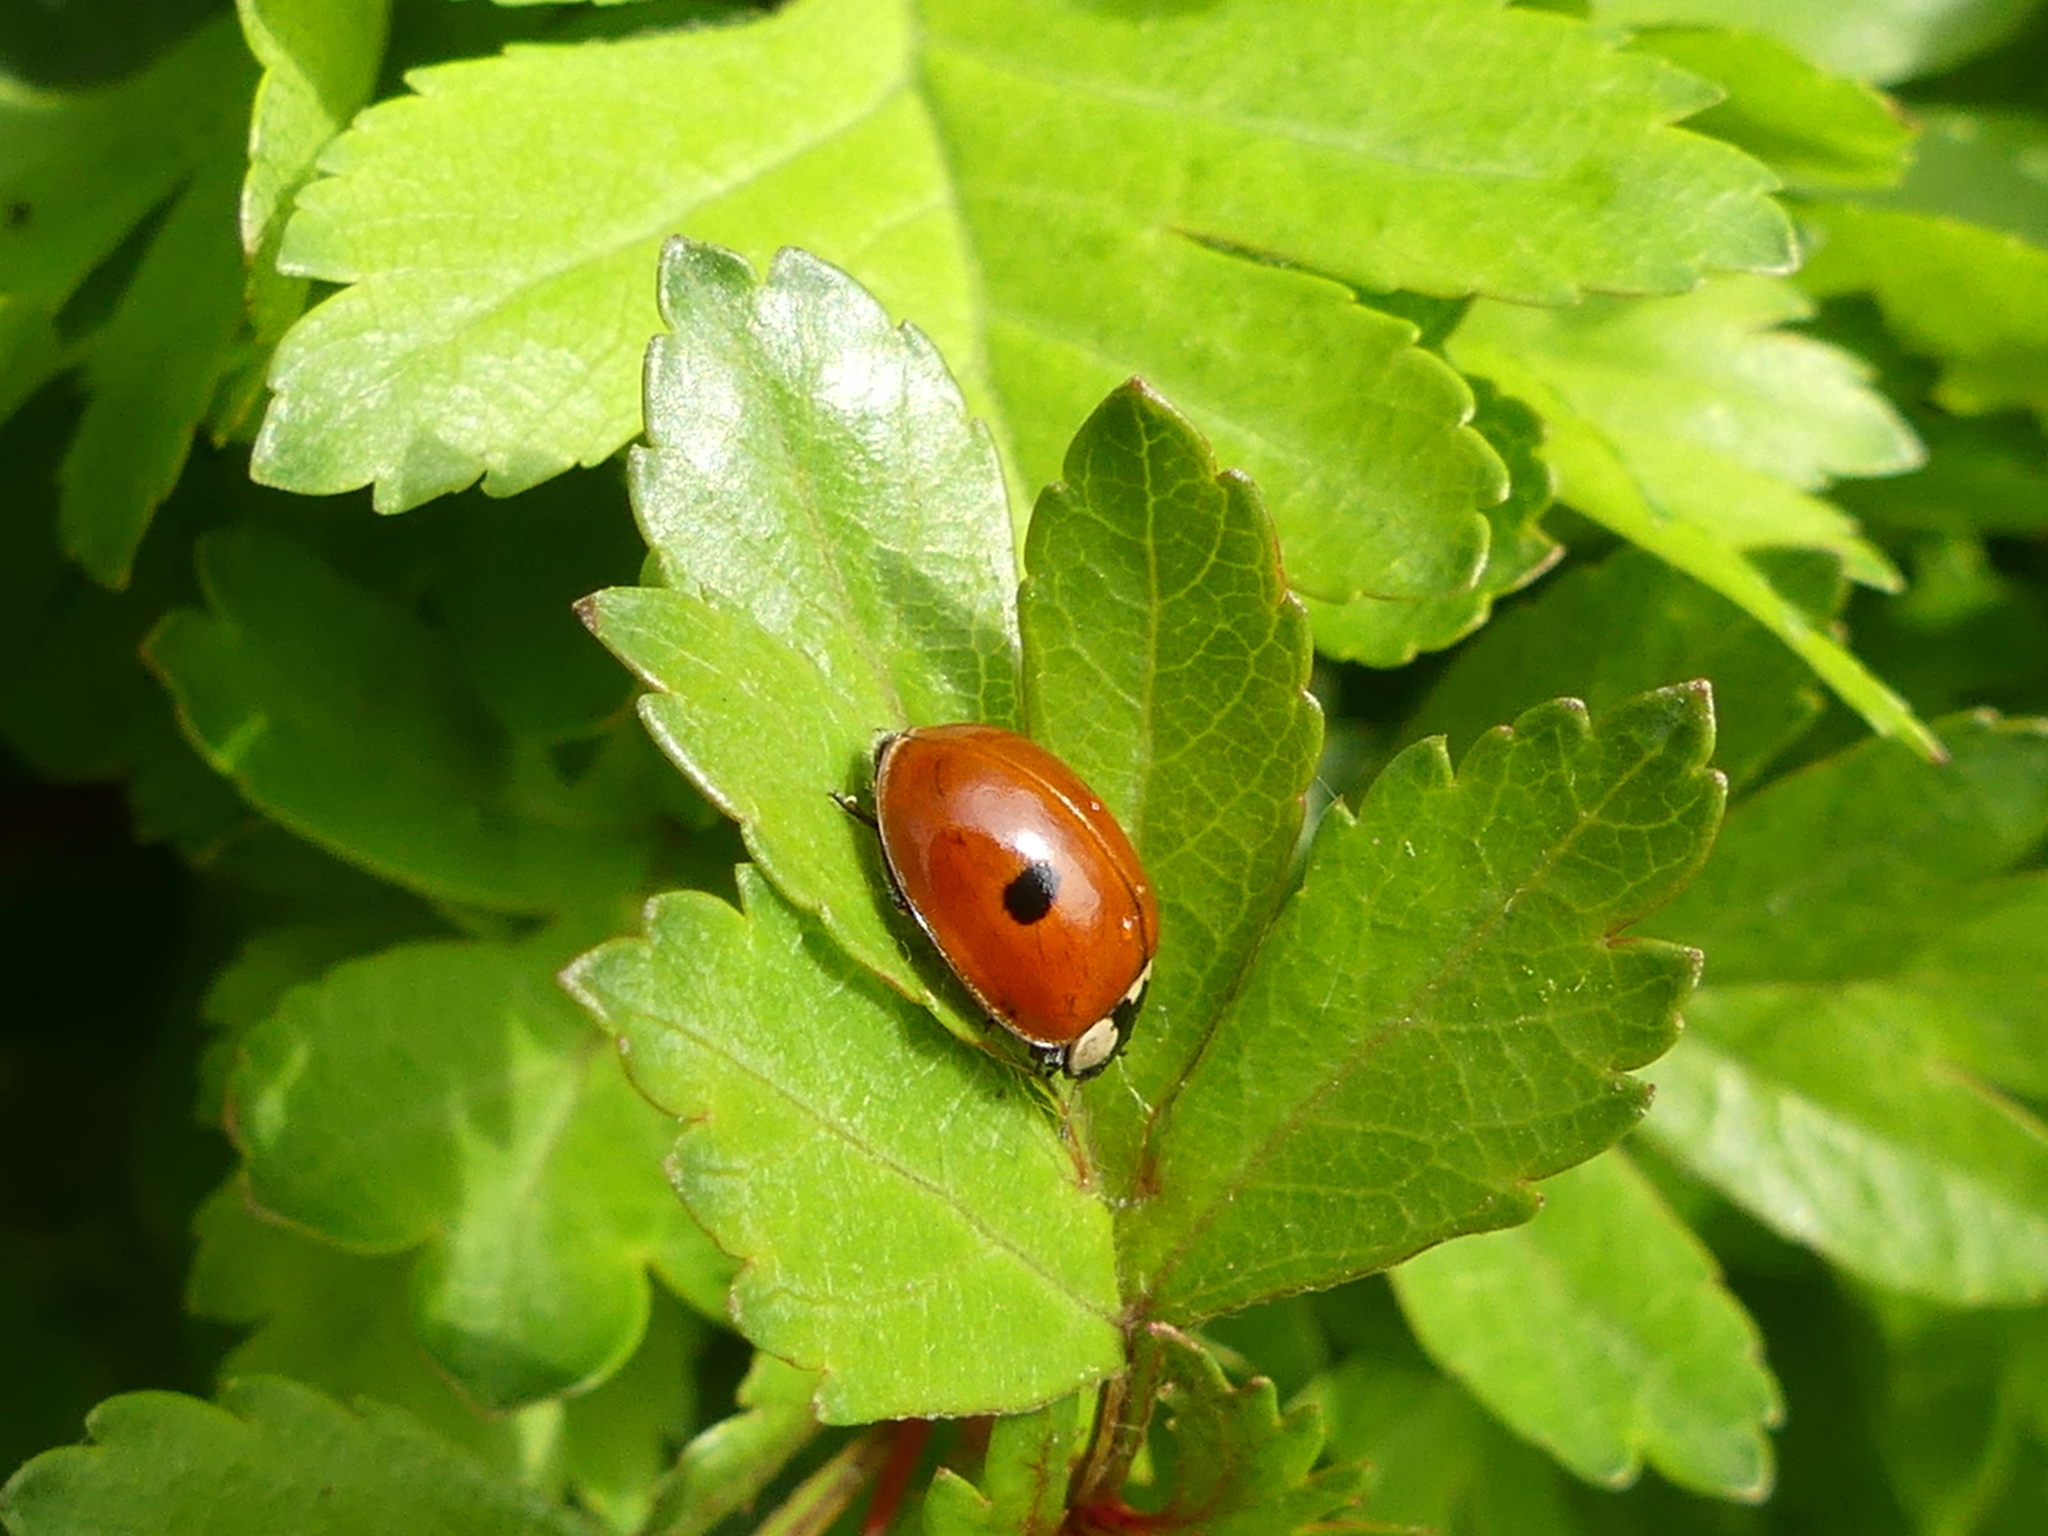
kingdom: Animalia
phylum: Arthropoda
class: Insecta
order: Coleoptera
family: Coccinellidae
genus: Adalia
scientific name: Adalia bipunctata
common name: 2-spot ladybird
